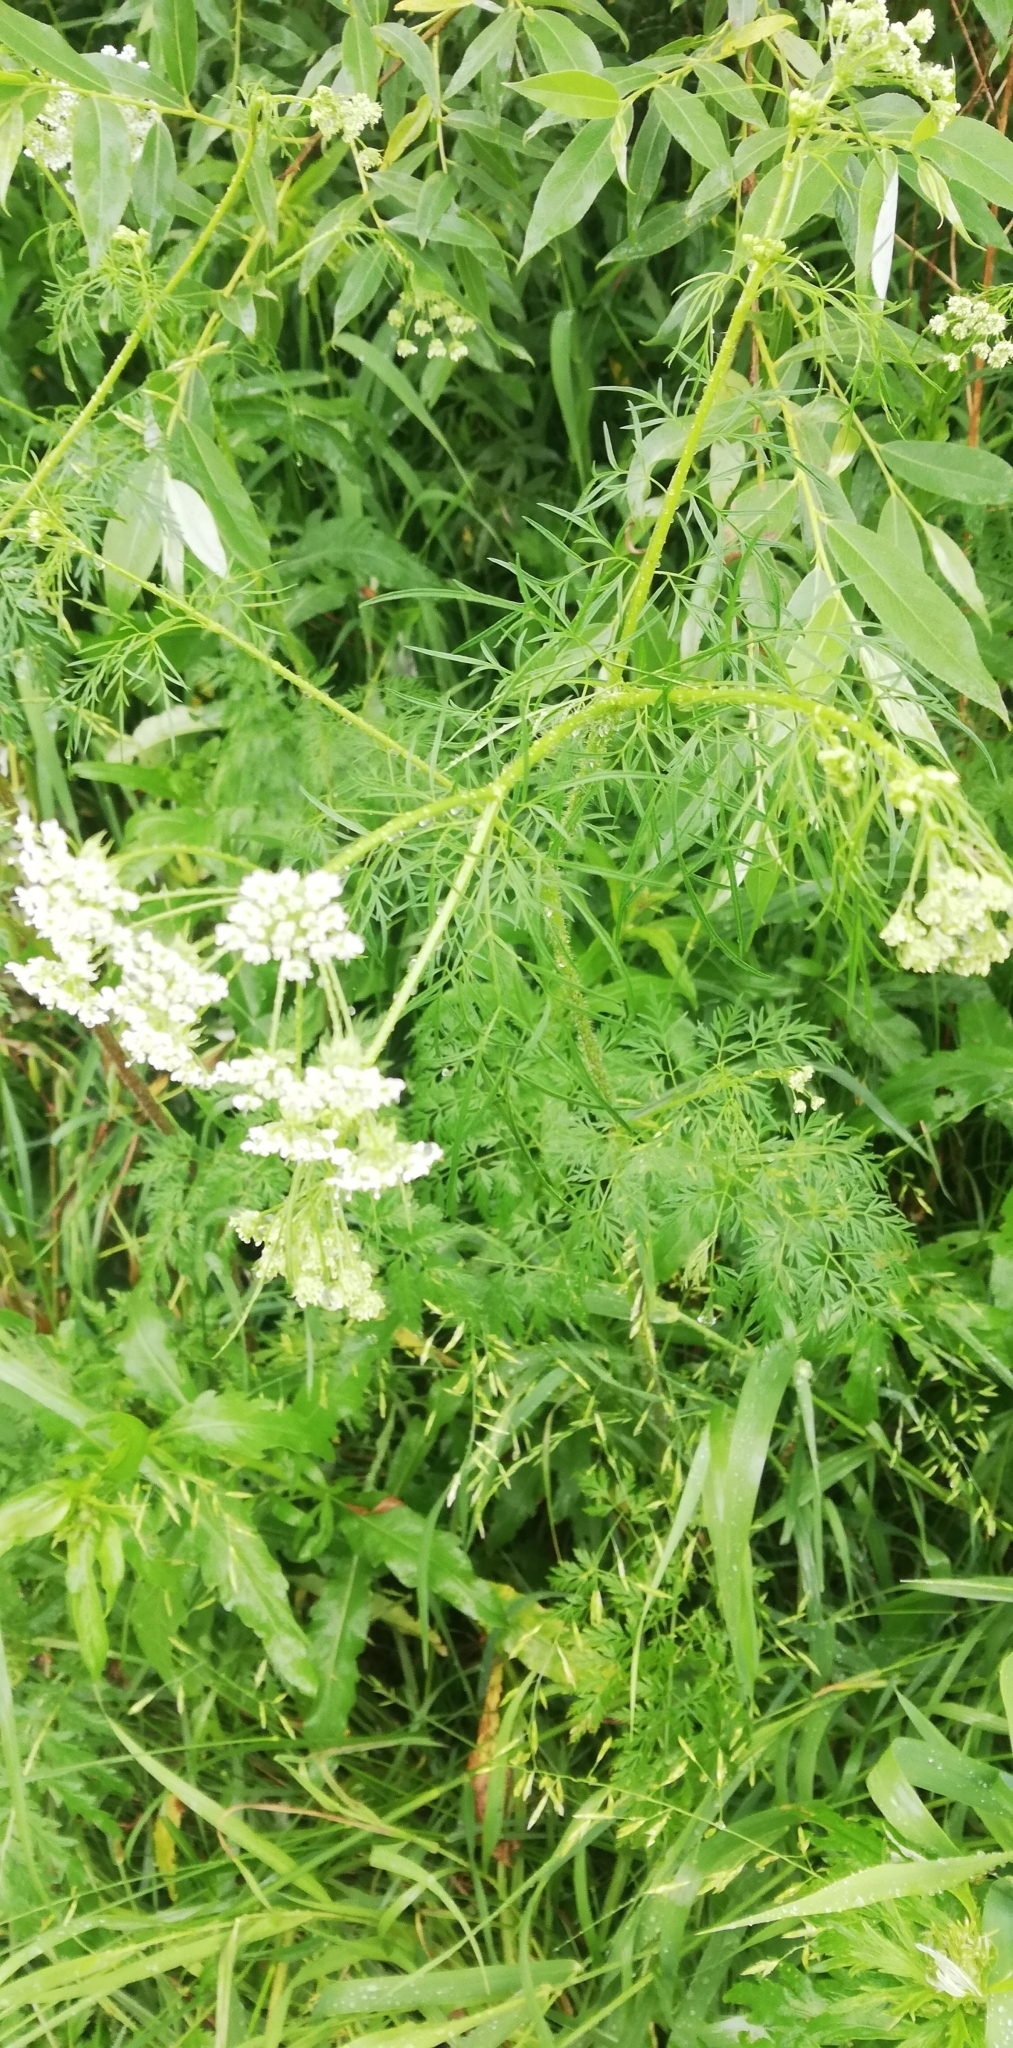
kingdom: Plantae
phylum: Tracheophyta
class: Magnoliopsida
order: Apiales
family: Apiaceae
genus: Chaerophyllum
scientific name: Chaerophyllum prescottii
